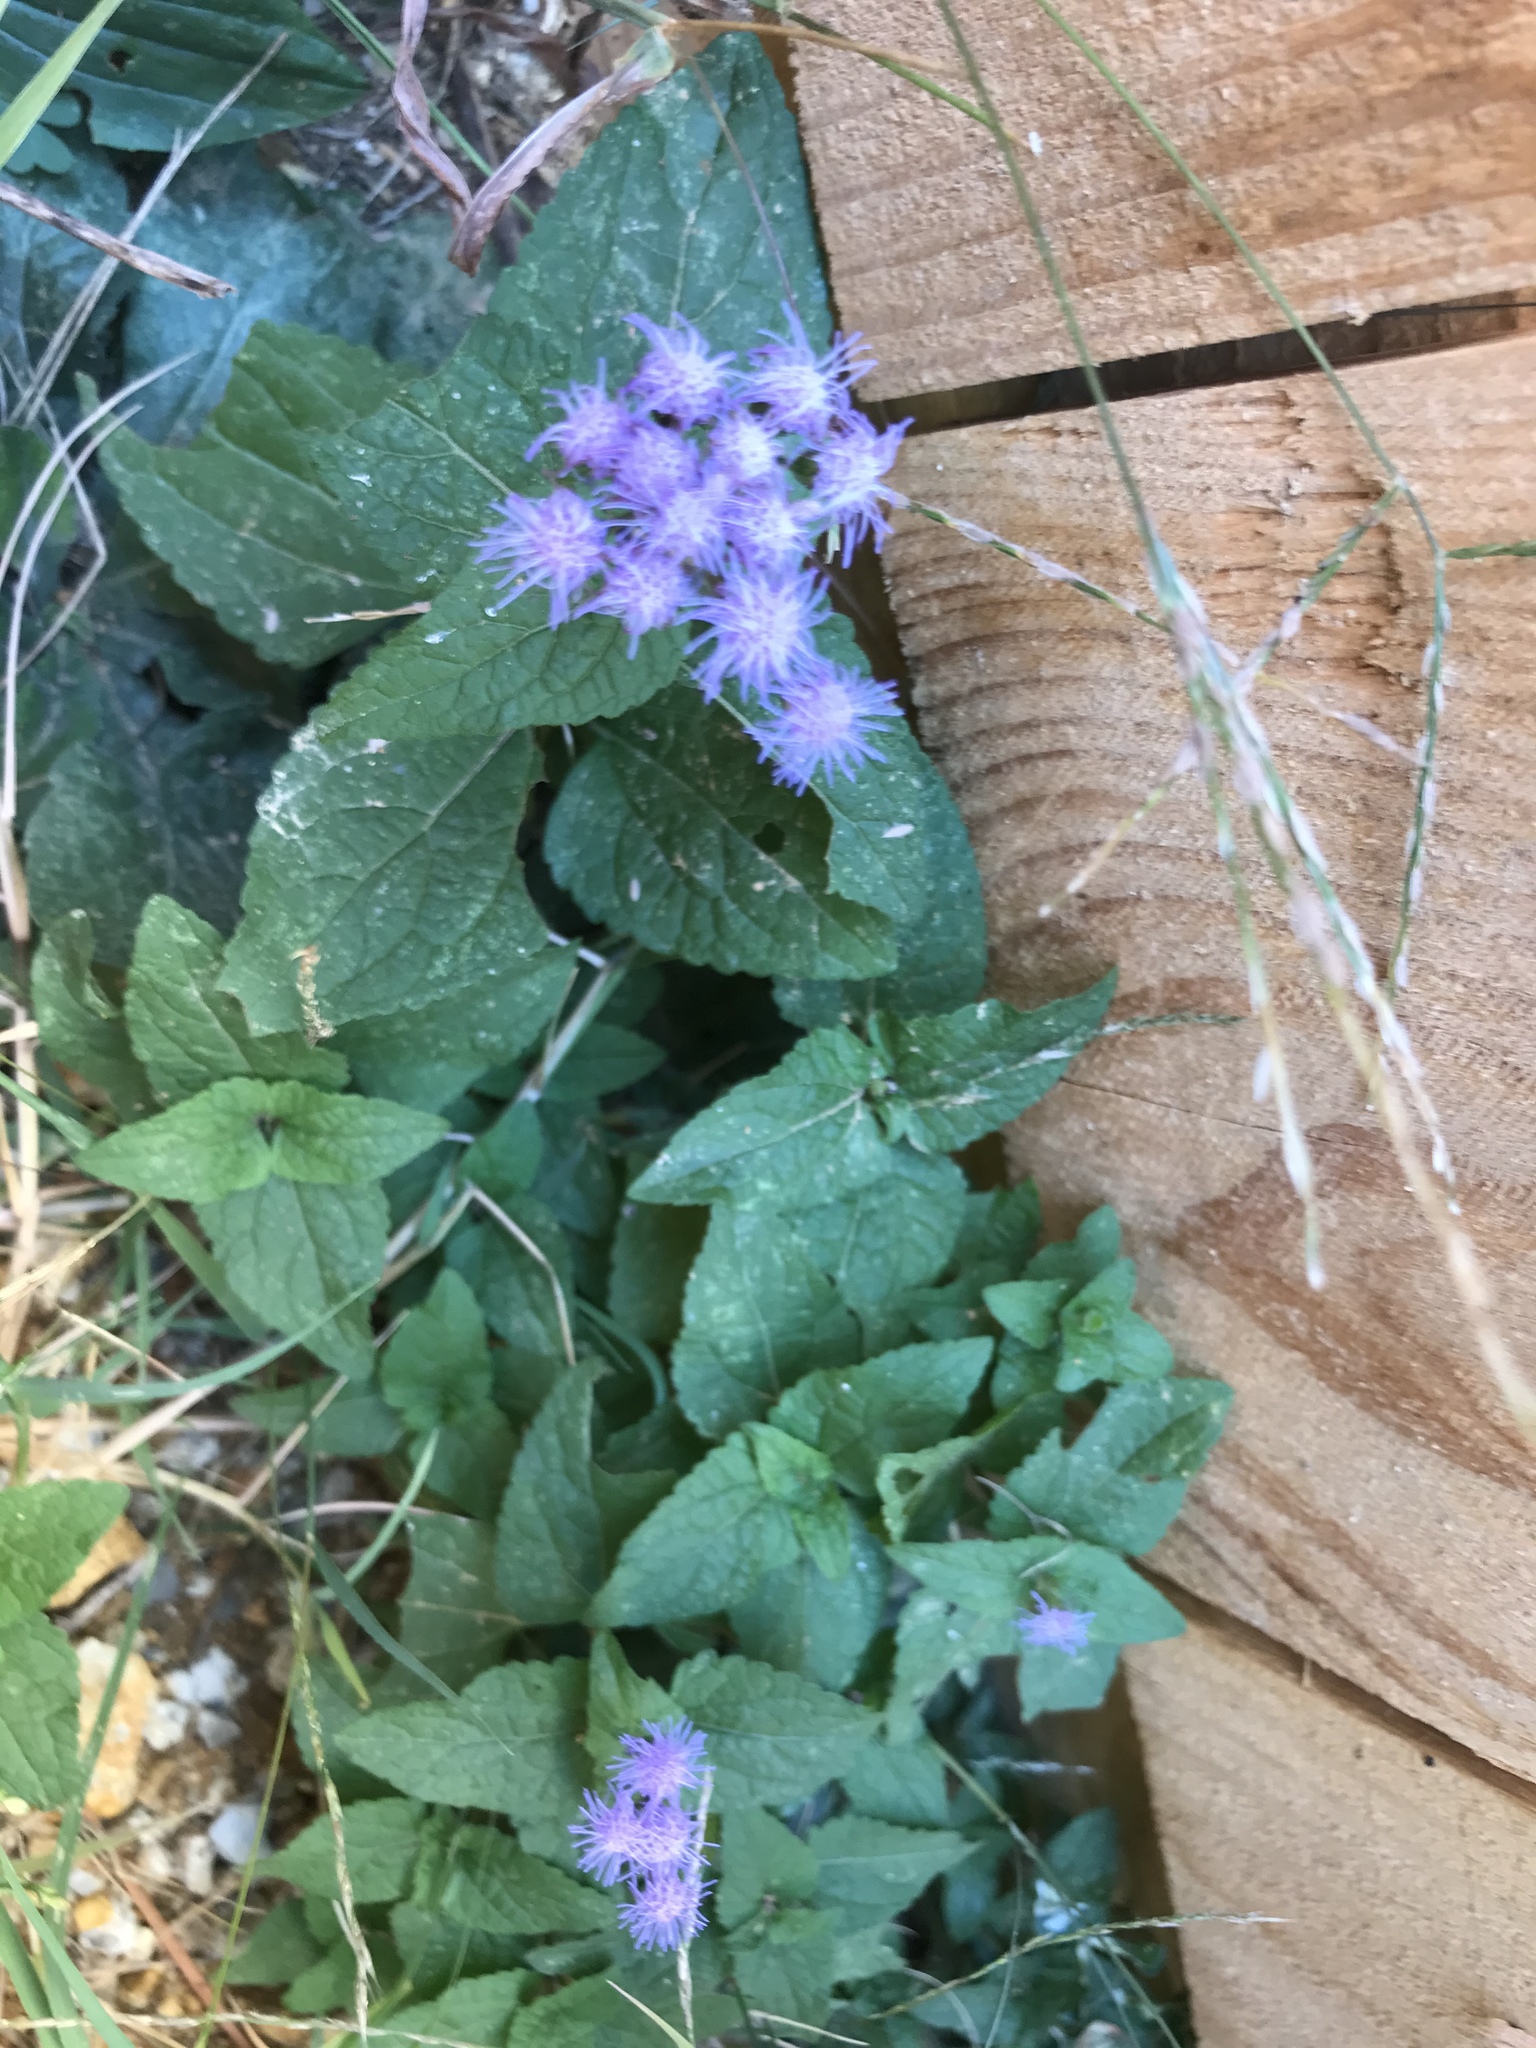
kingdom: Plantae
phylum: Tracheophyta
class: Magnoliopsida
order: Asterales
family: Asteraceae
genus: Conoclinium
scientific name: Conoclinium coelestinum
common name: Blue mistflower
